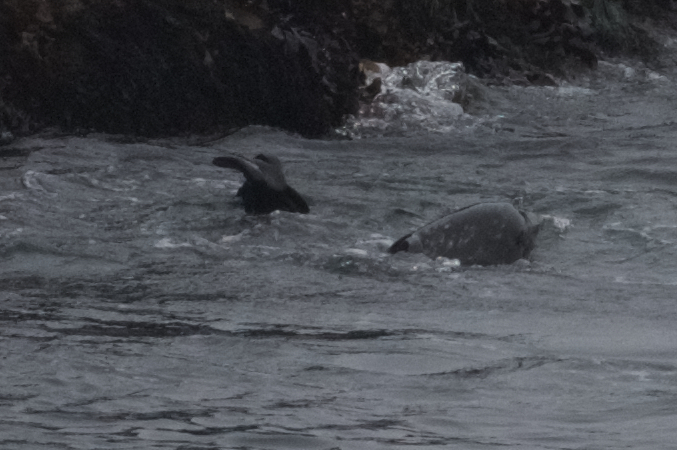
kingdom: Animalia
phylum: Chordata
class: Mammalia
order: Carnivora
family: Phocidae
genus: Phoca
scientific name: Phoca vitulina
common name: Harbor seal
